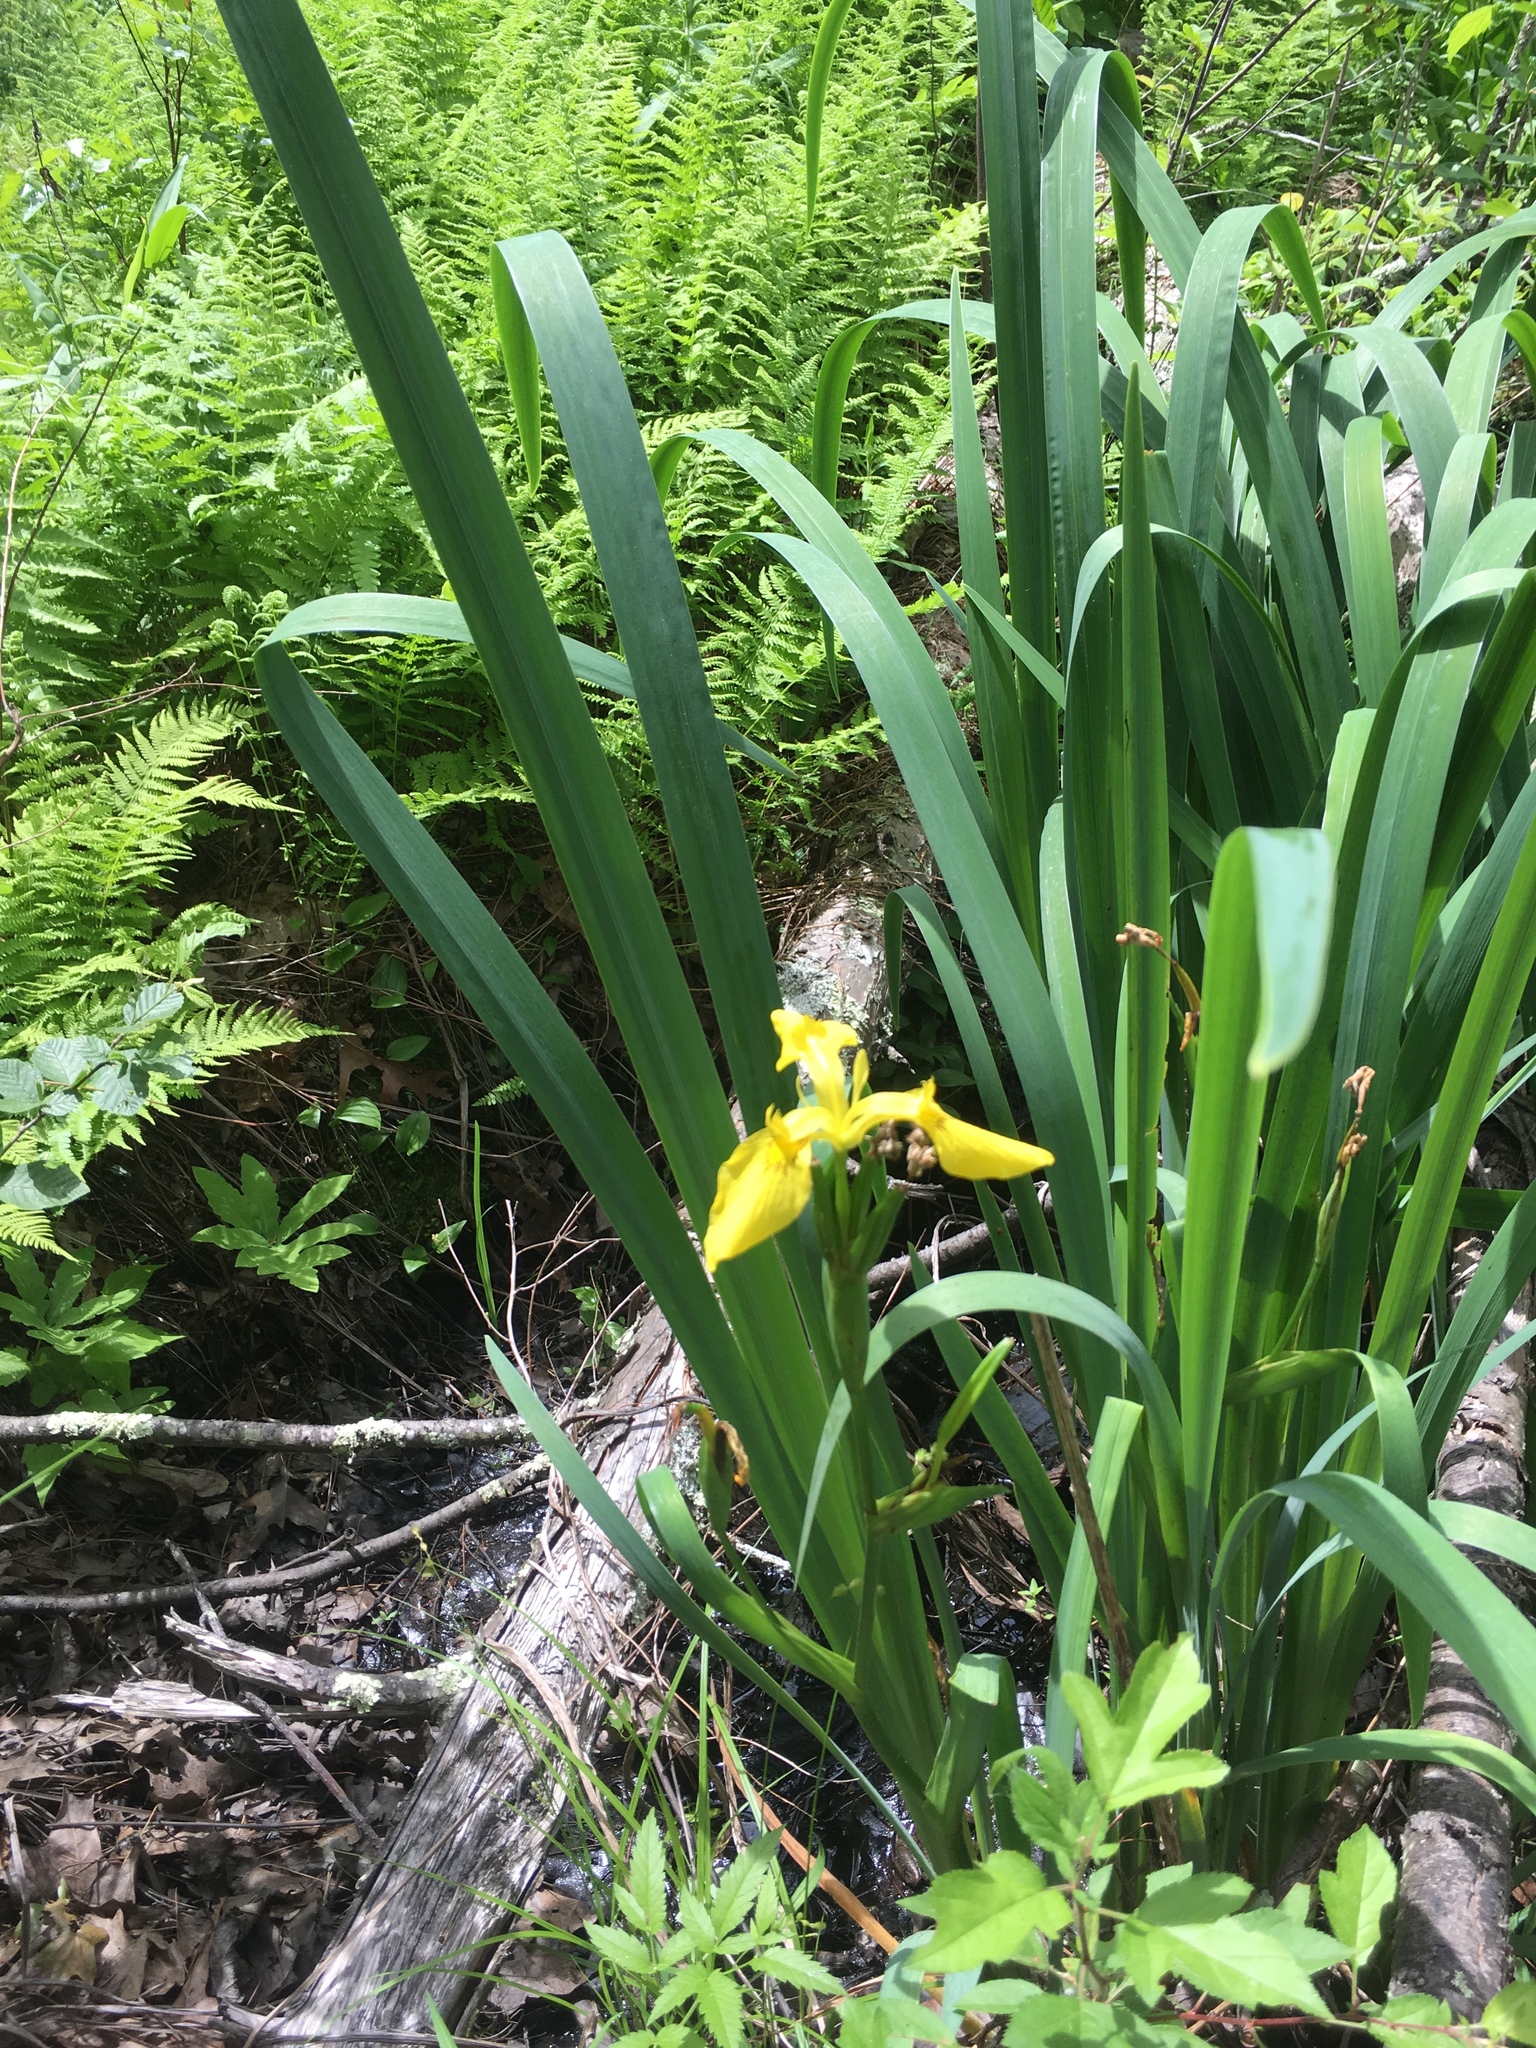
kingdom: Plantae
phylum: Tracheophyta
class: Liliopsida
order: Asparagales
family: Iridaceae
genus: Iris
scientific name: Iris pseudacorus
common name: Yellow flag
